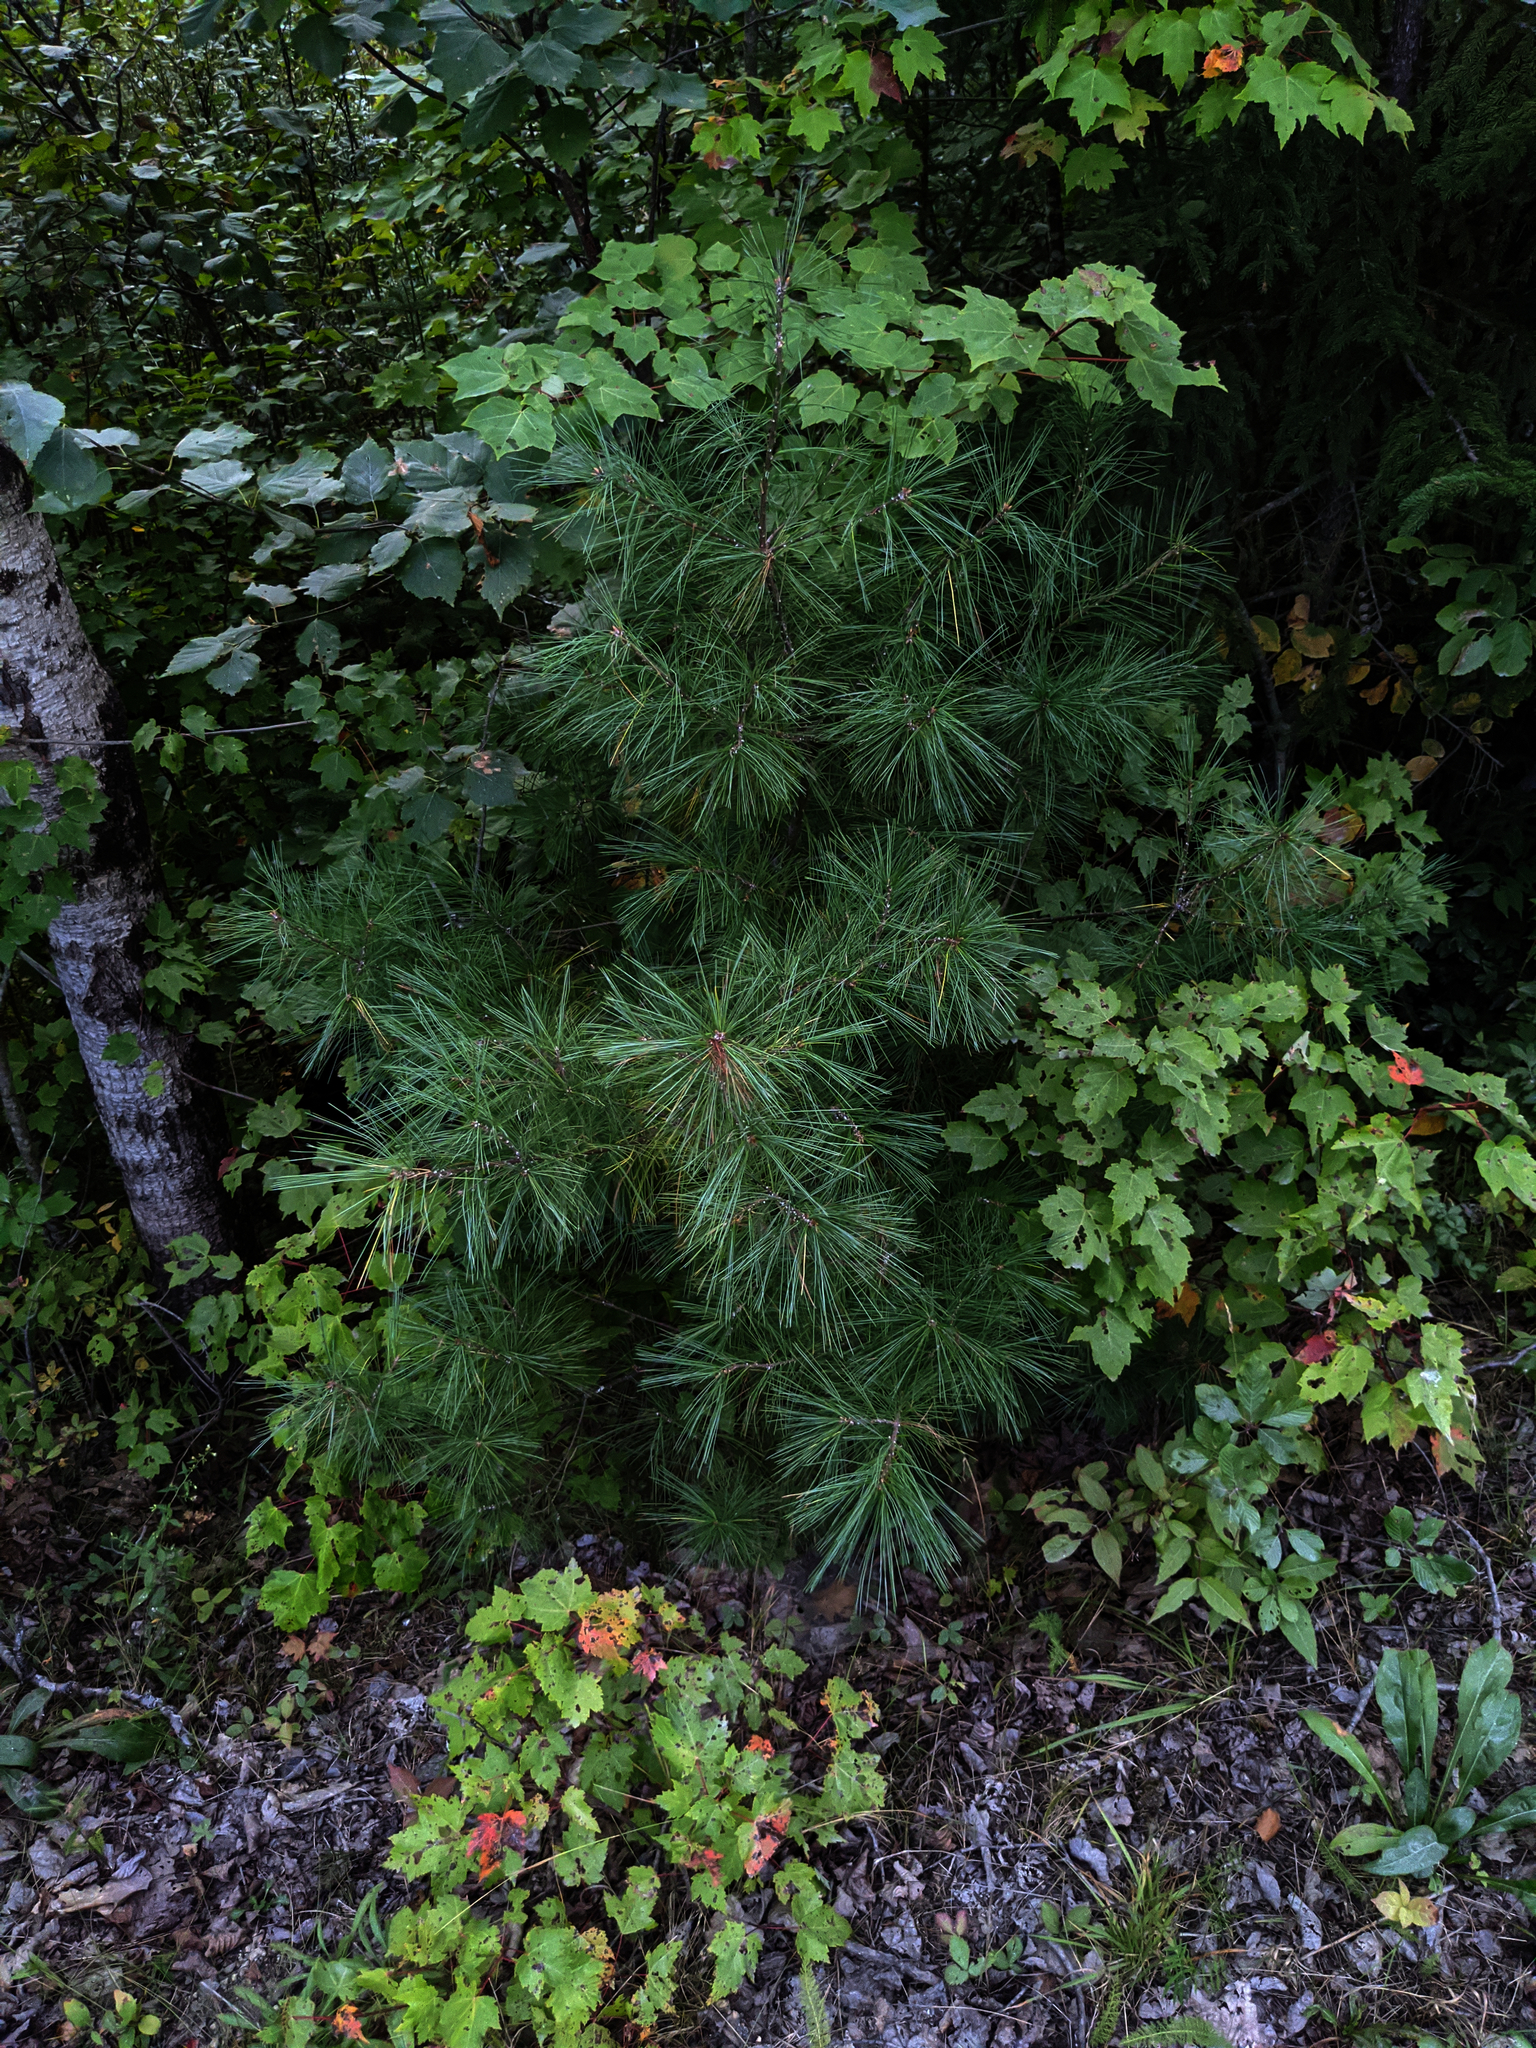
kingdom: Plantae
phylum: Tracheophyta
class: Pinopsida
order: Pinales
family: Pinaceae
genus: Pinus
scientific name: Pinus strobus
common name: Weymouth pine
